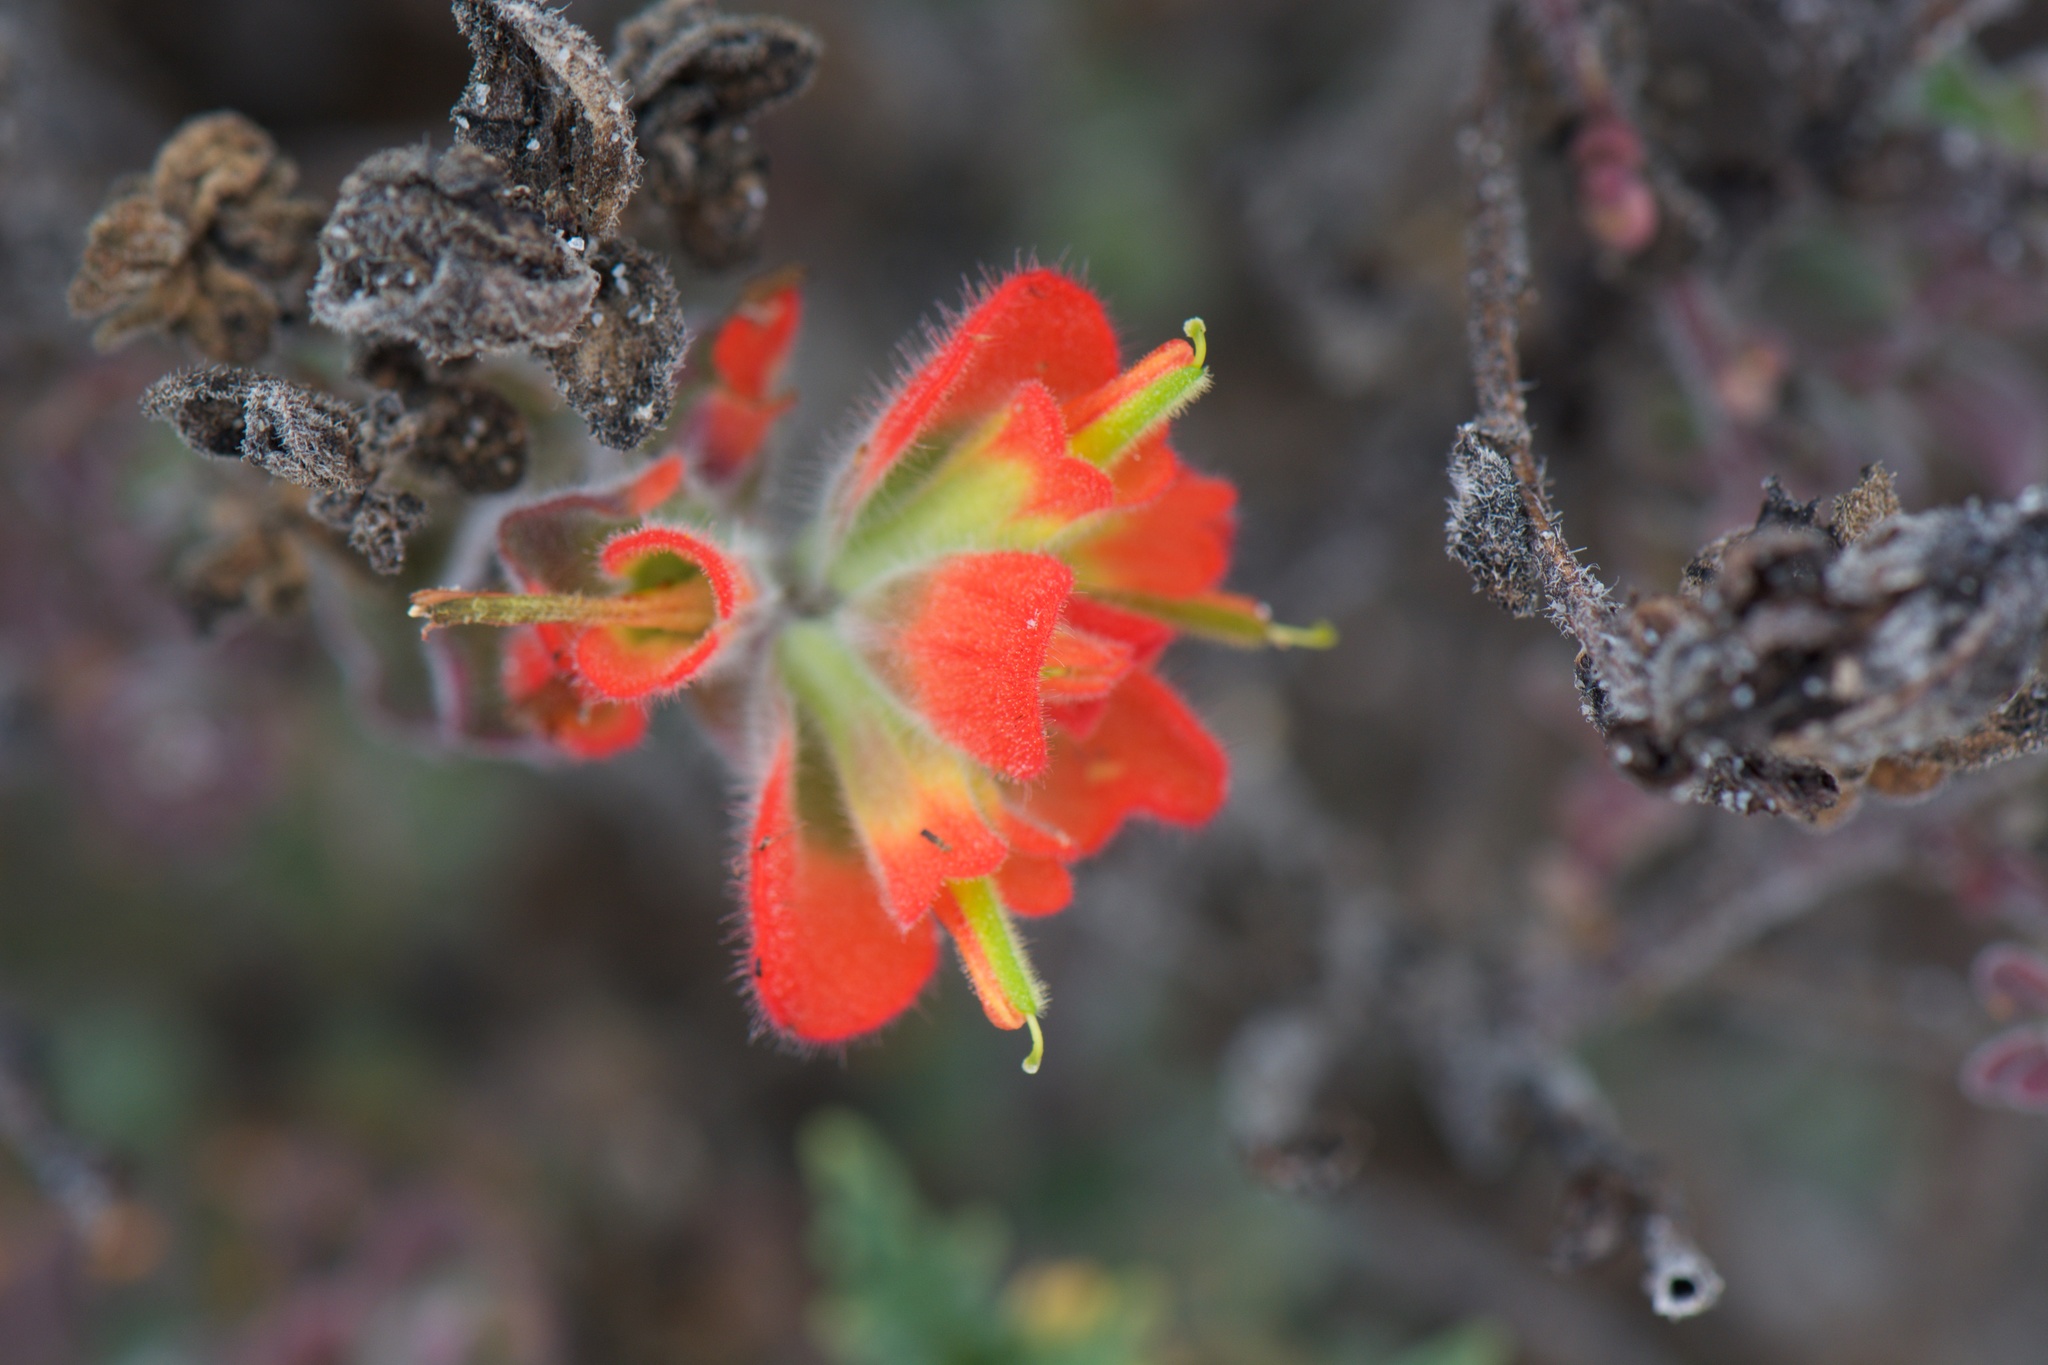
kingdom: Plantae
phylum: Tracheophyta
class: Magnoliopsida
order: Lamiales
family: Orobanchaceae
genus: Castilleja
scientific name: Castilleja latifolia
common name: Monterey indian paintbrush
